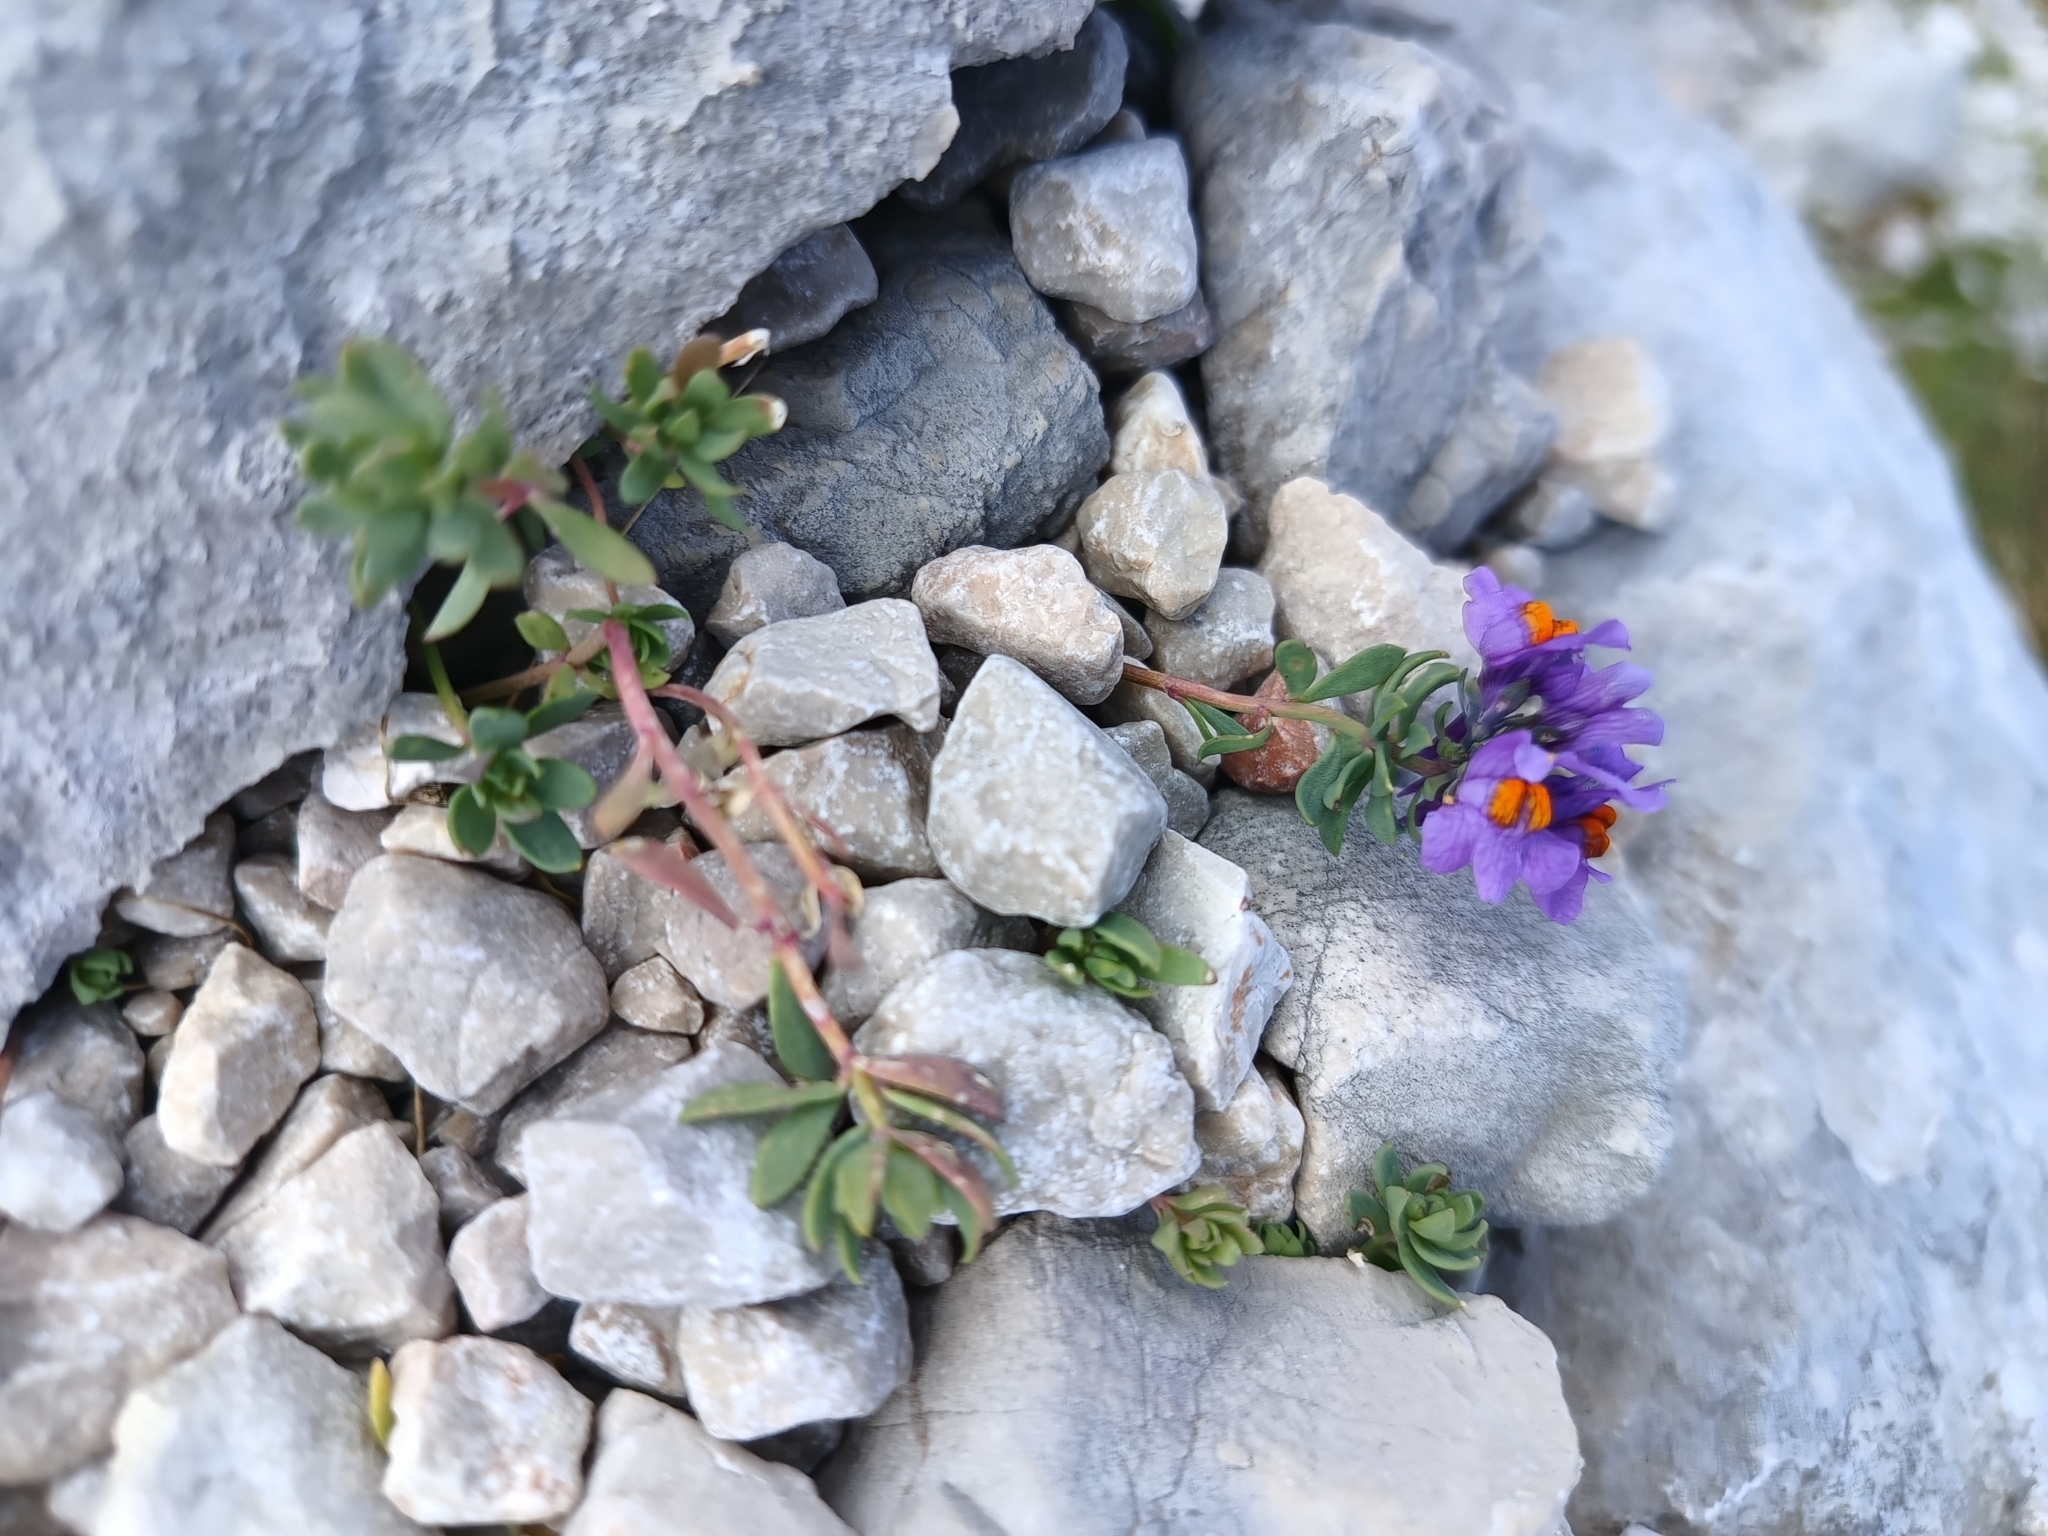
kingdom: Plantae
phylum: Tracheophyta
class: Magnoliopsida
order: Lamiales
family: Plantaginaceae
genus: Linaria
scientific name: Linaria alpina
